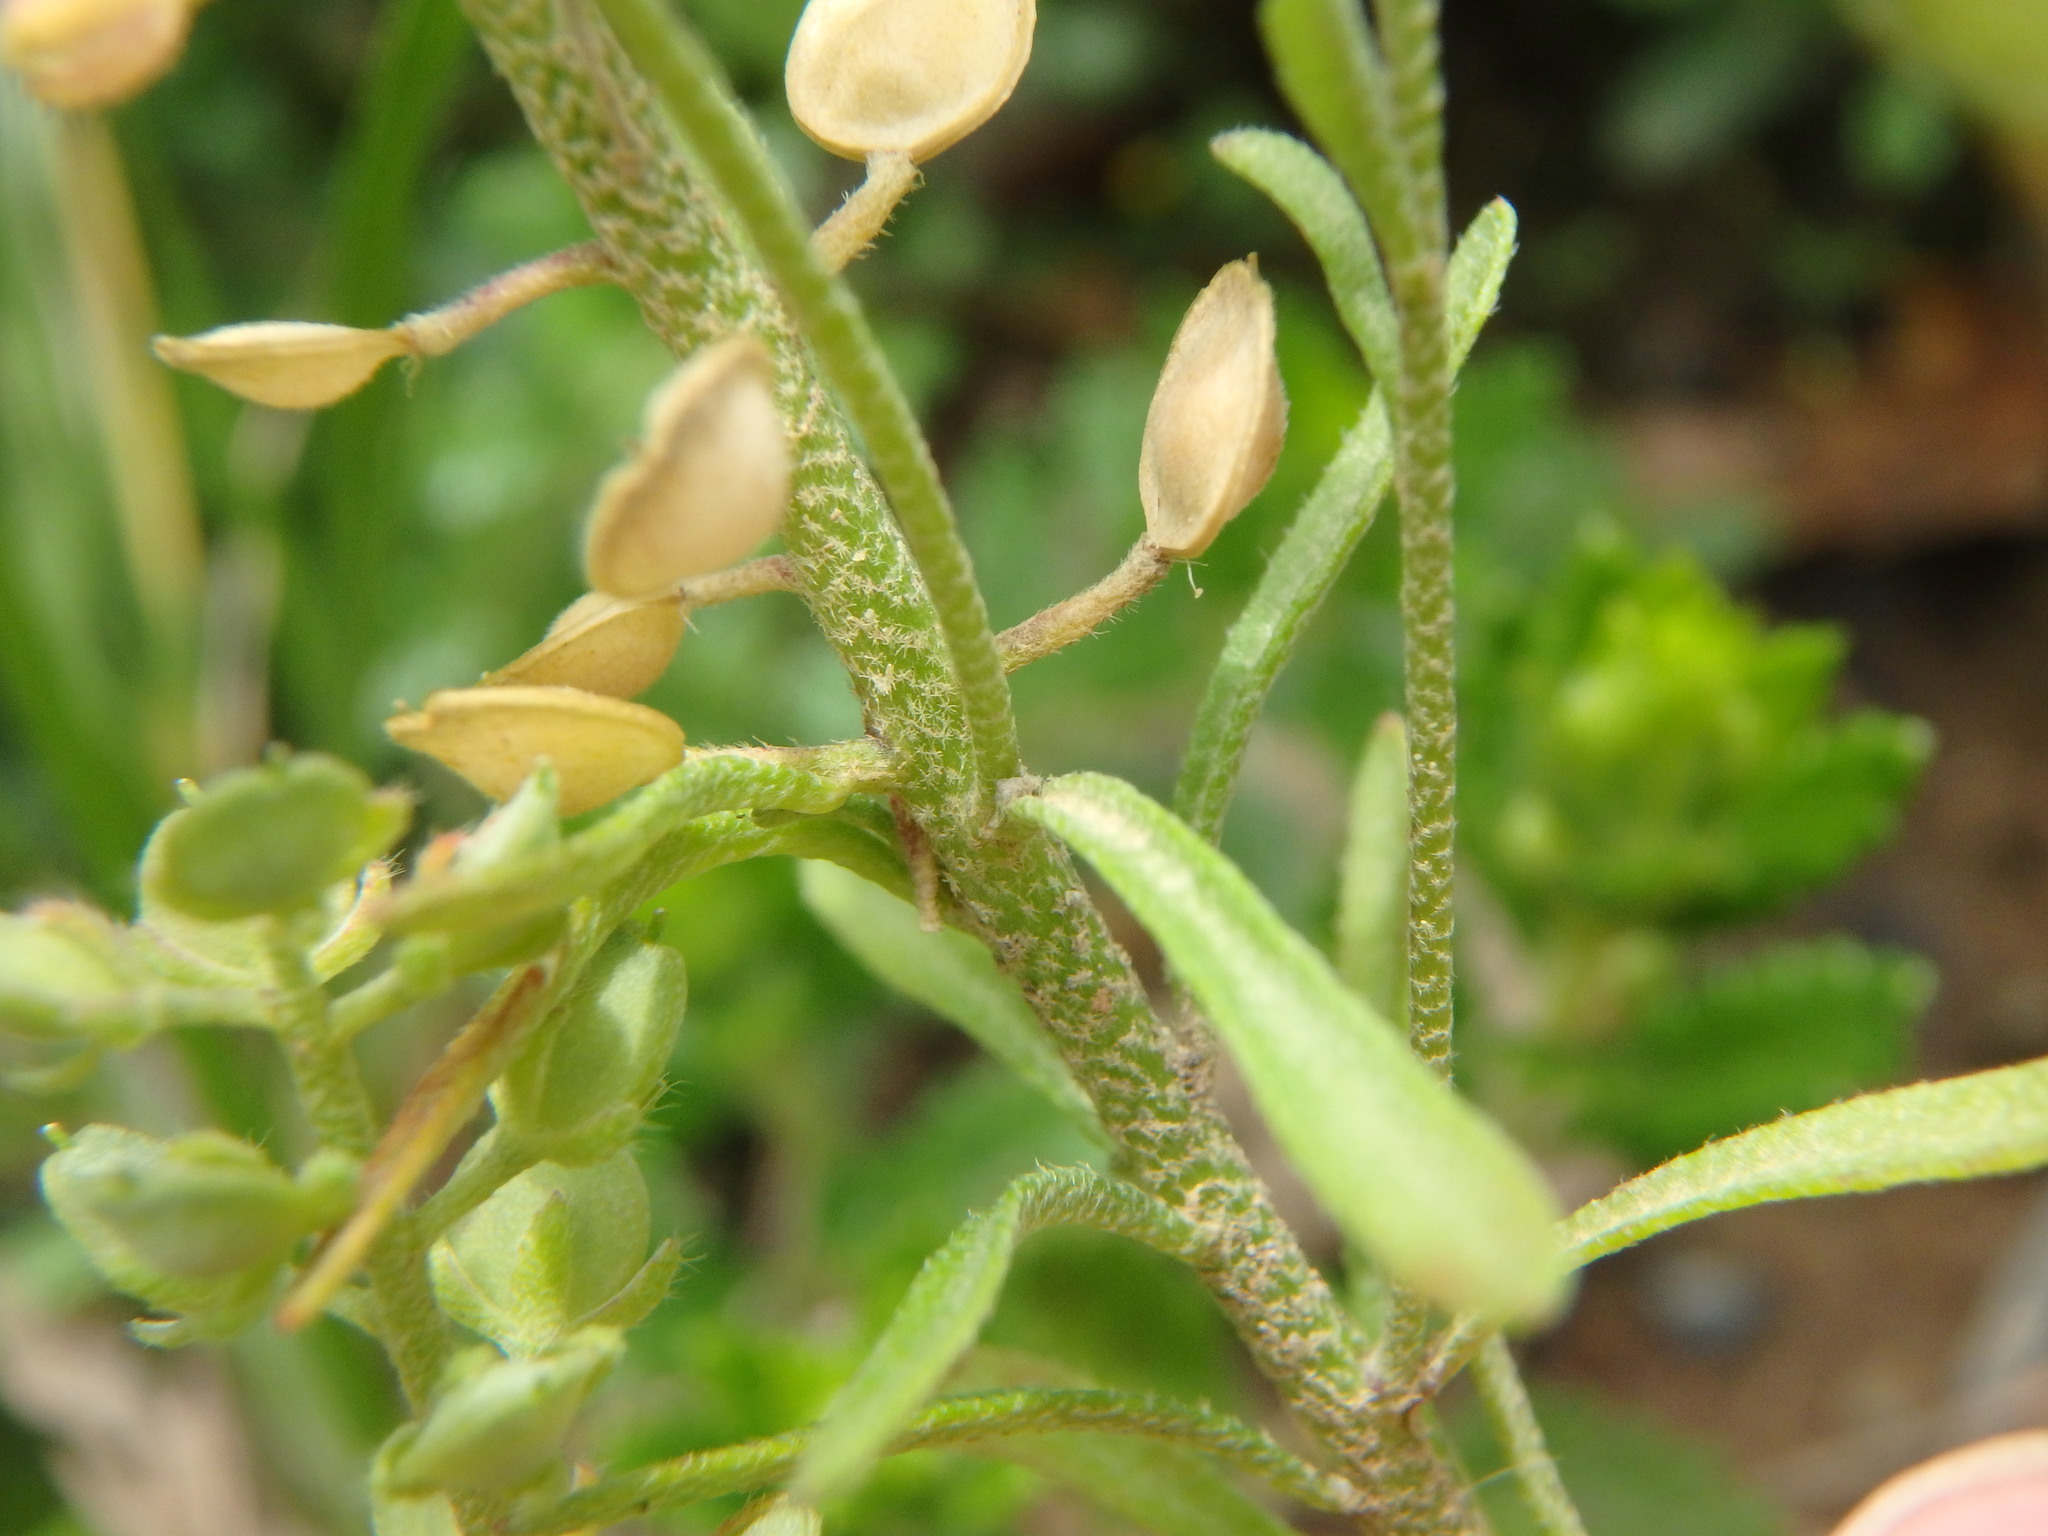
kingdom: Plantae
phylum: Tracheophyta
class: Magnoliopsida
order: Brassicales
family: Brassicaceae
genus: Alyssum
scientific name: Alyssum alyssoides
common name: Small alison
